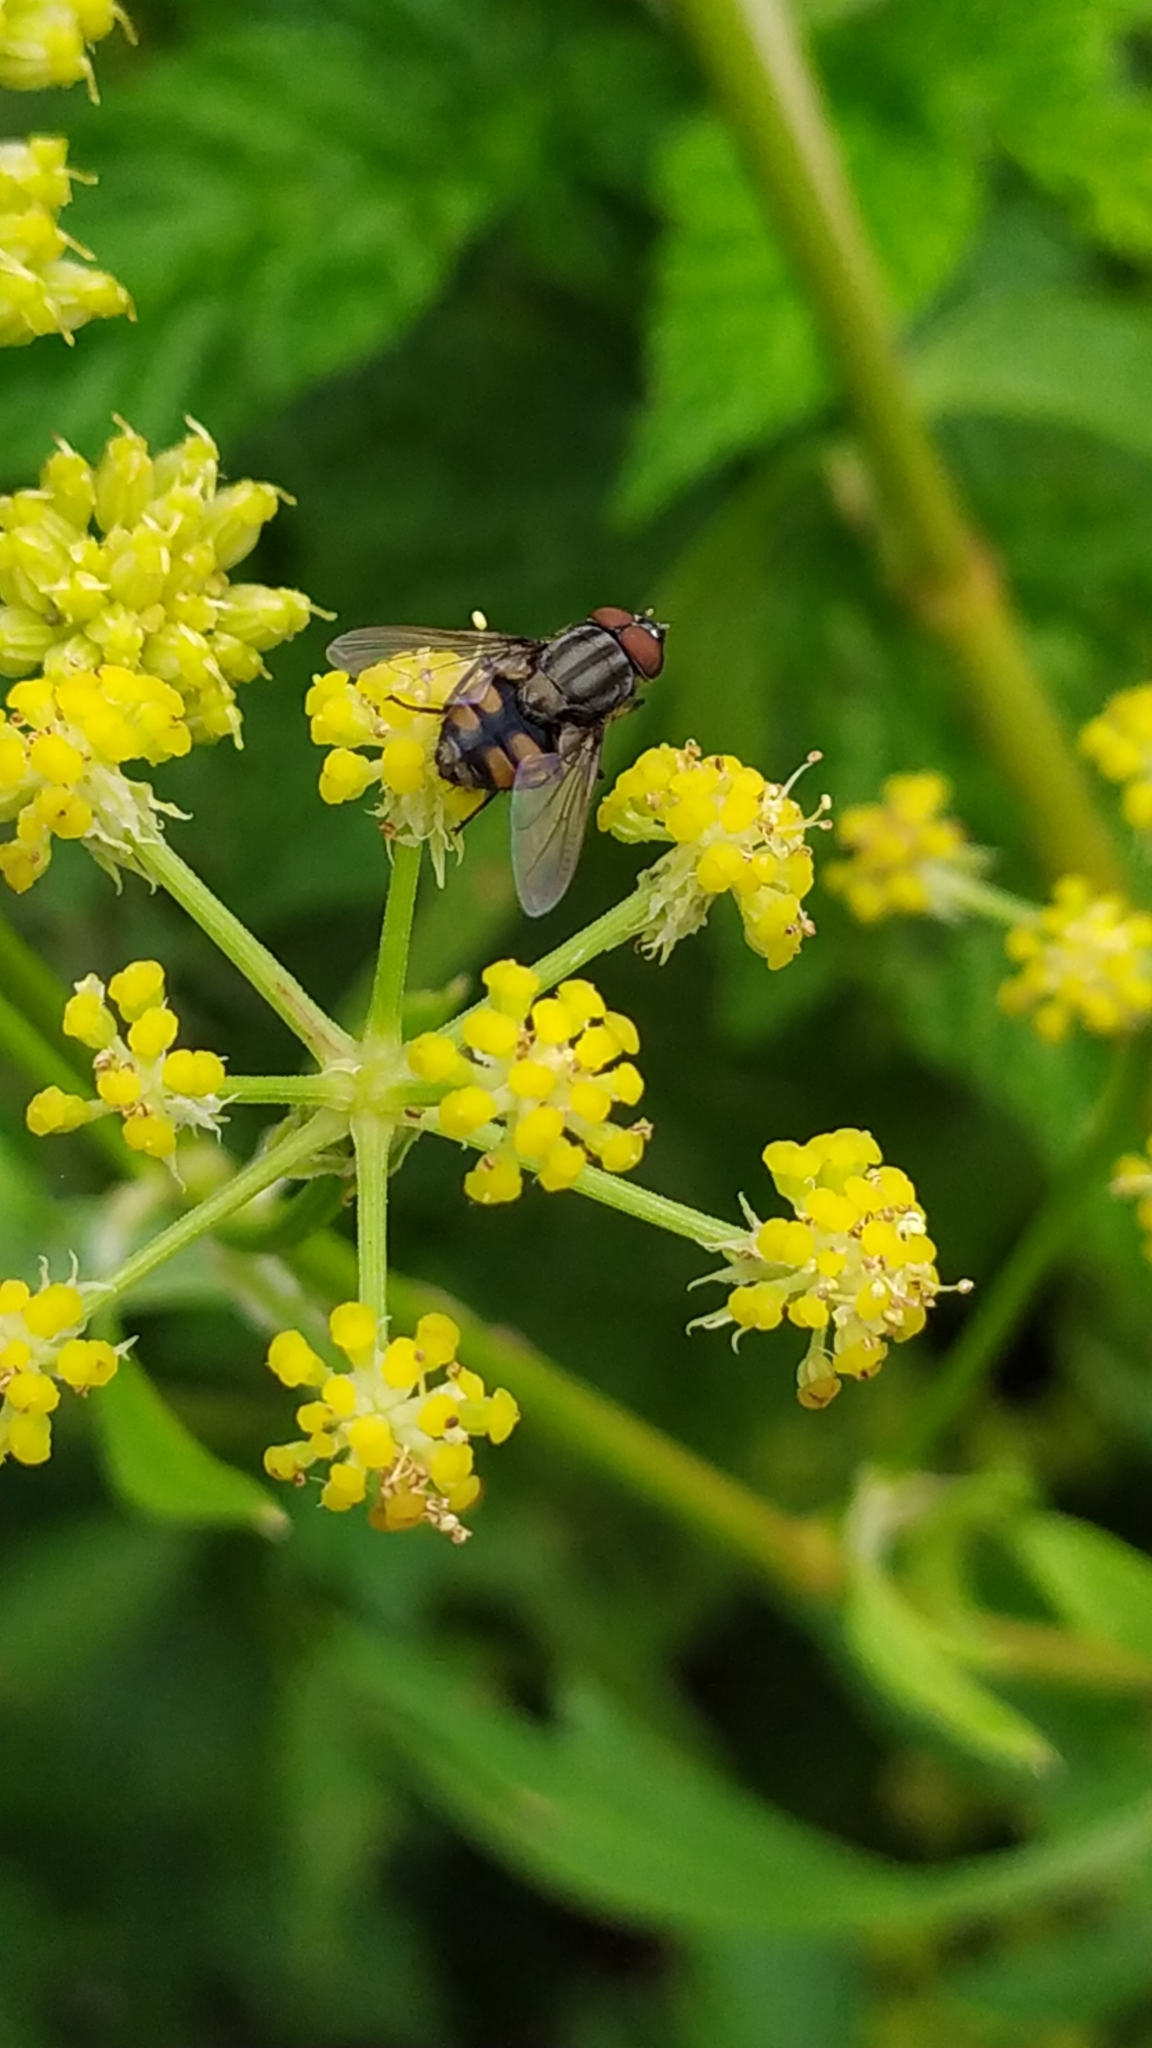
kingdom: Animalia
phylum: Arthropoda
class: Insecta
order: Diptera
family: Calliphoridae
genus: Stomorhina
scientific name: Stomorhina lunata
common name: Locust blowfly
